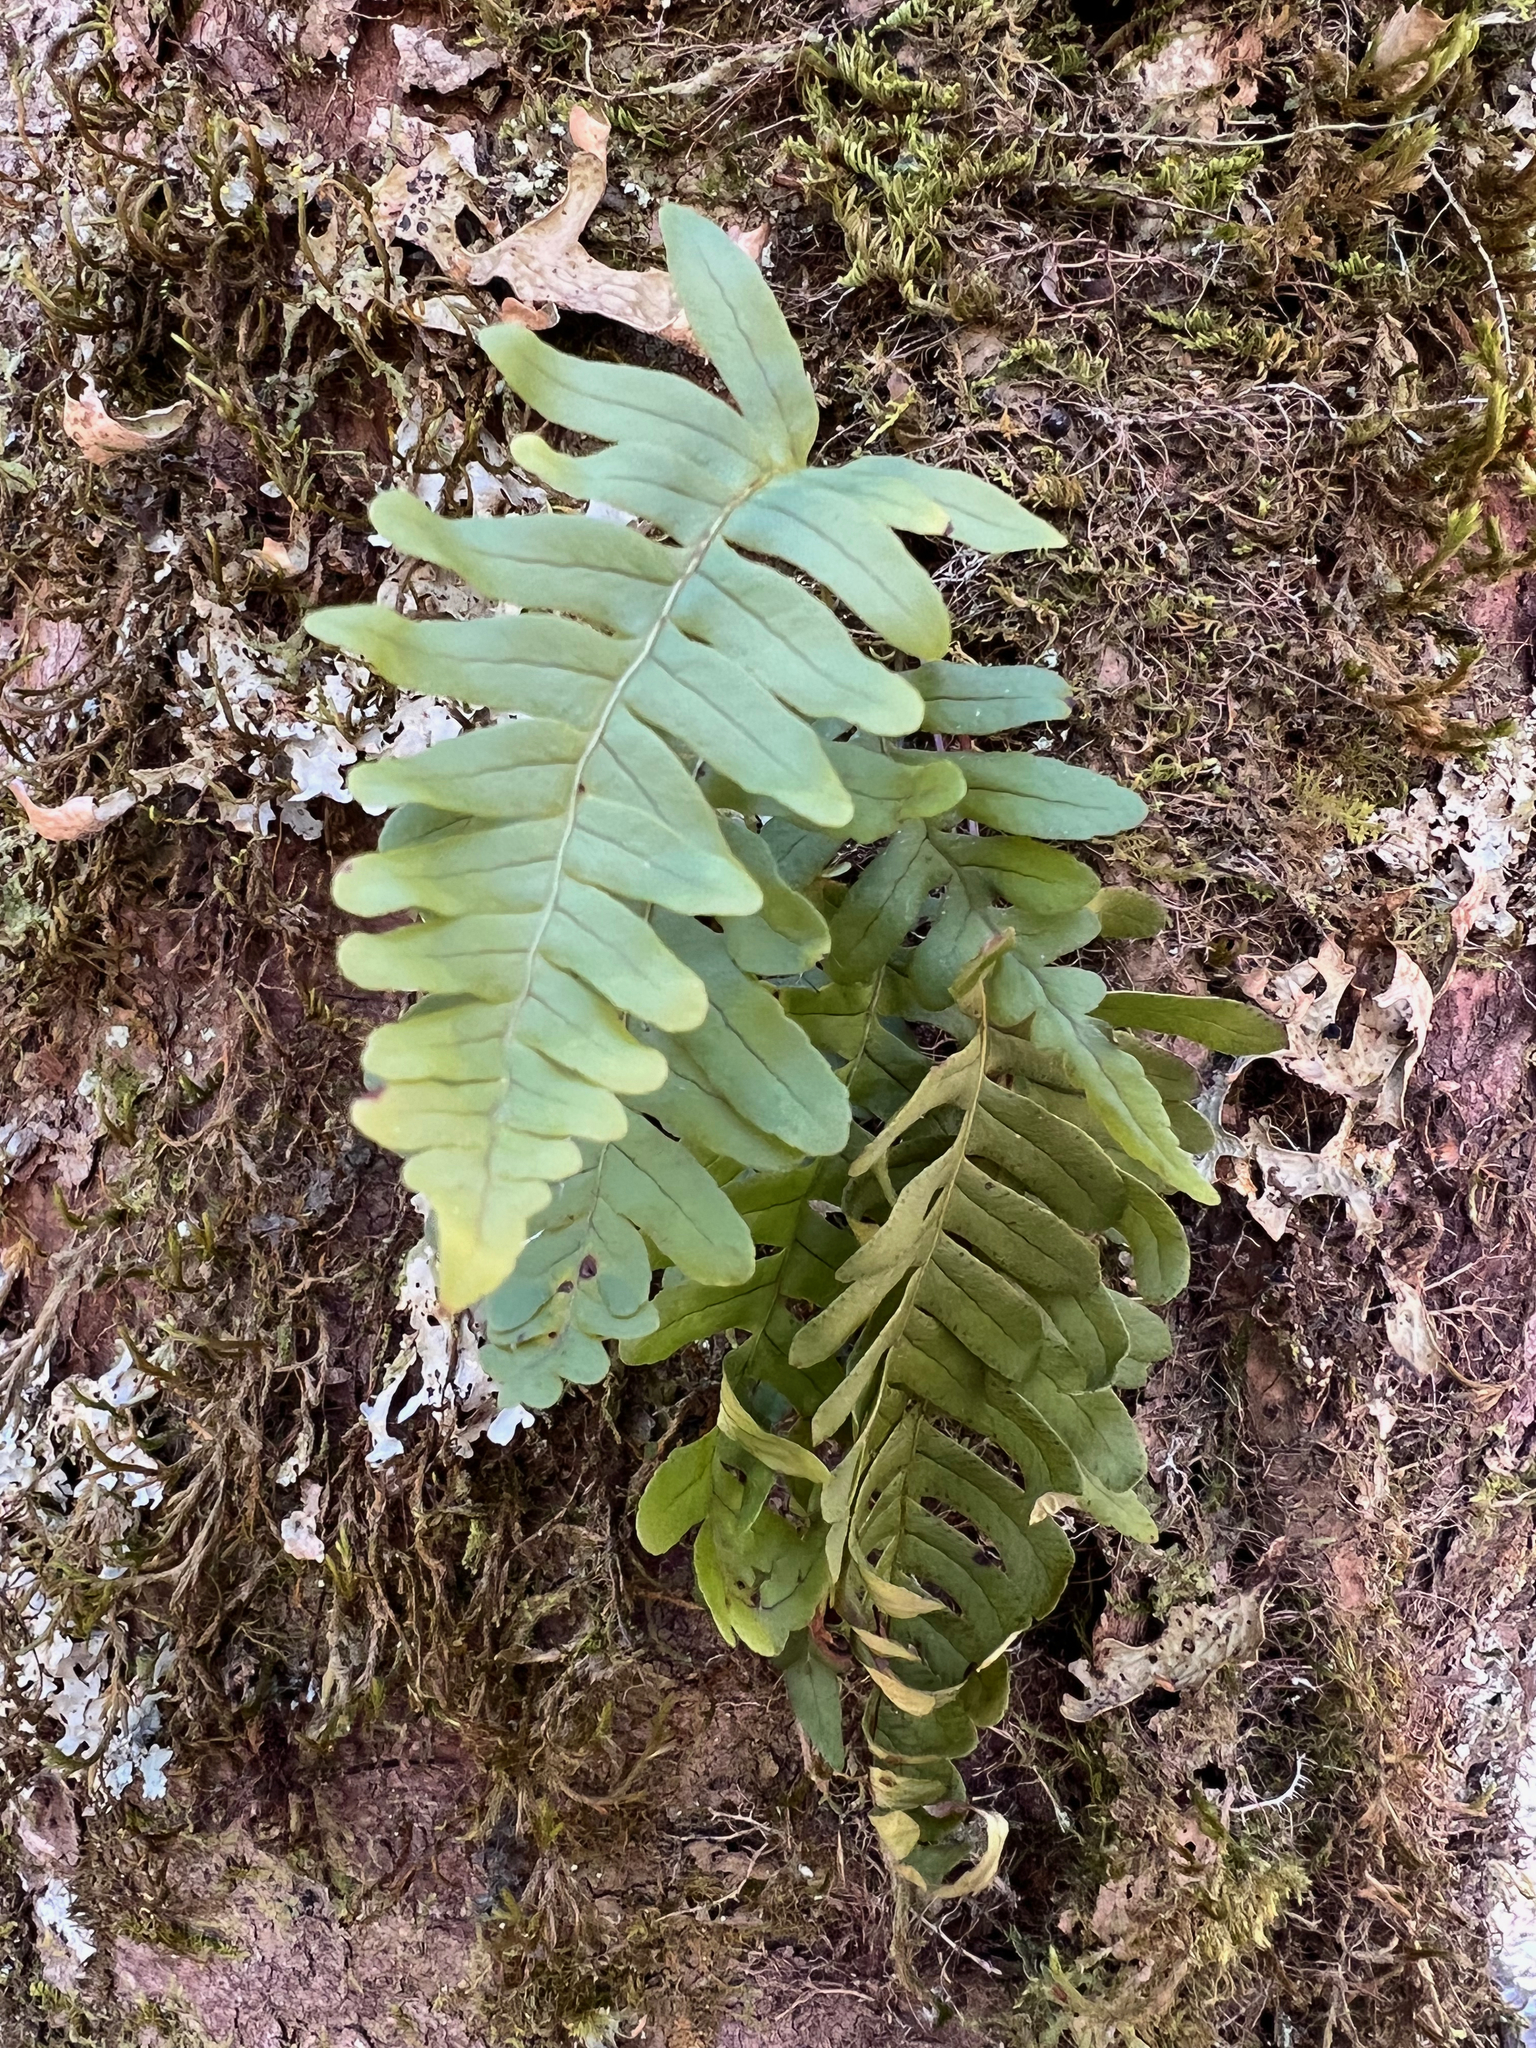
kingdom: Plantae
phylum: Tracheophyta
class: Polypodiopsida
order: Polypodiales
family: Polypodiaceae
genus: Polypodium
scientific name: Polypodium appalachianum
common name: Appalachian polypody
